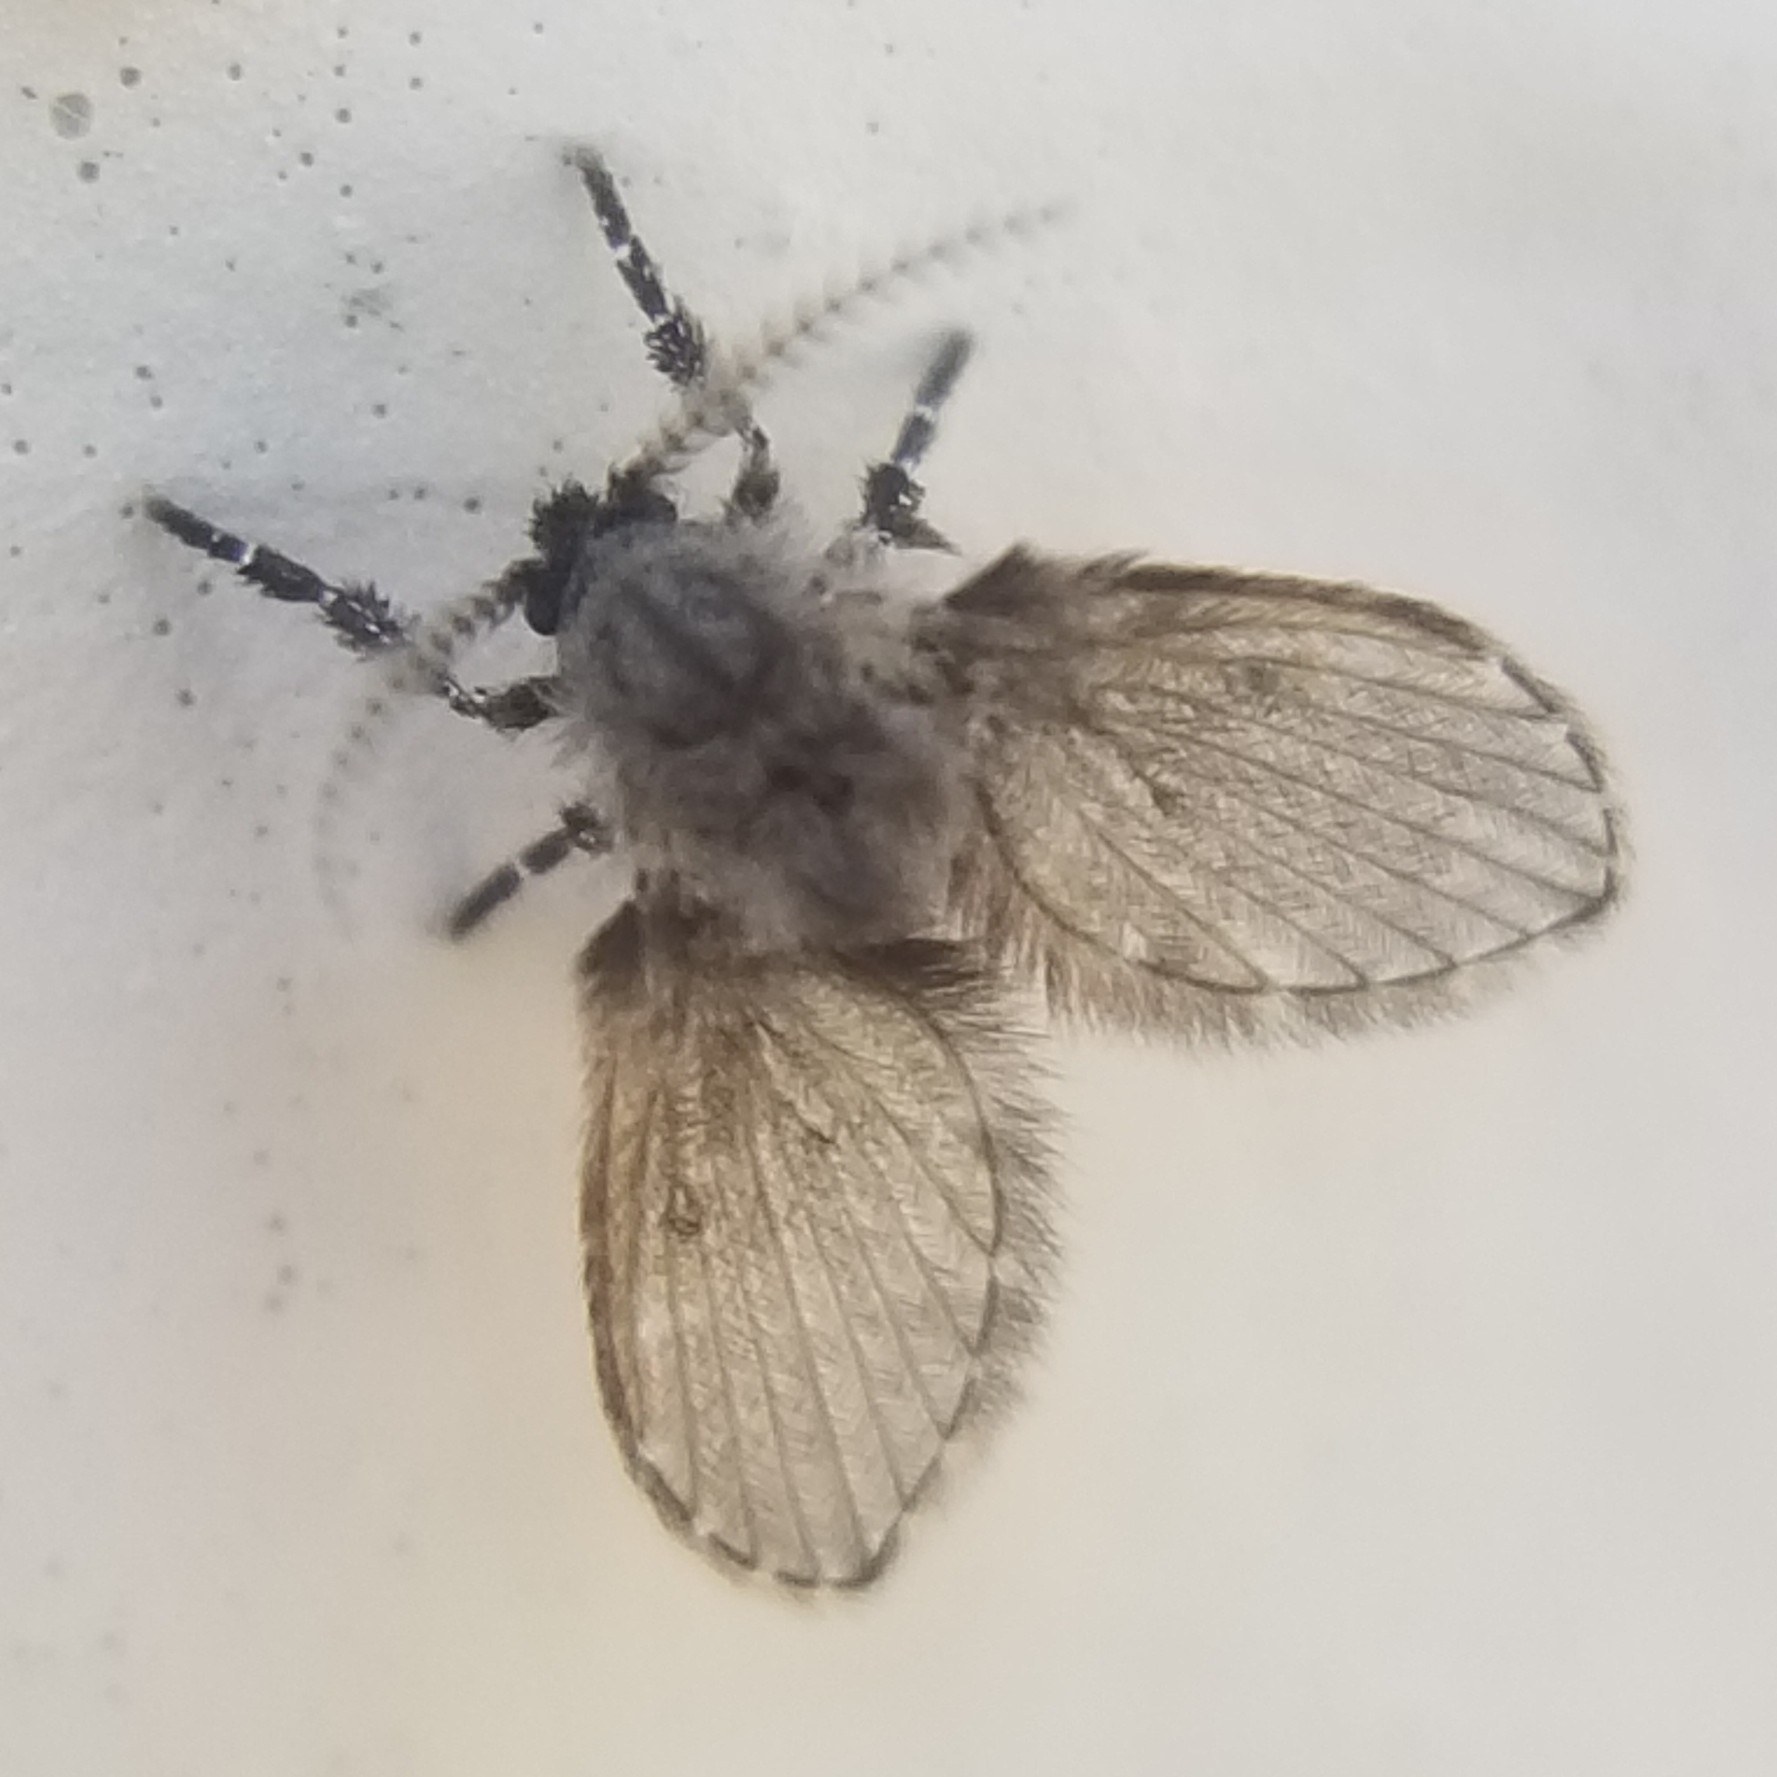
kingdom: Animalia
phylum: Arthropoda
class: Insecta
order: Diptera
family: Psychodidae
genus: Clogmia
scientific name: Clogmia albipunctatus
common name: White-spotted moth fly
